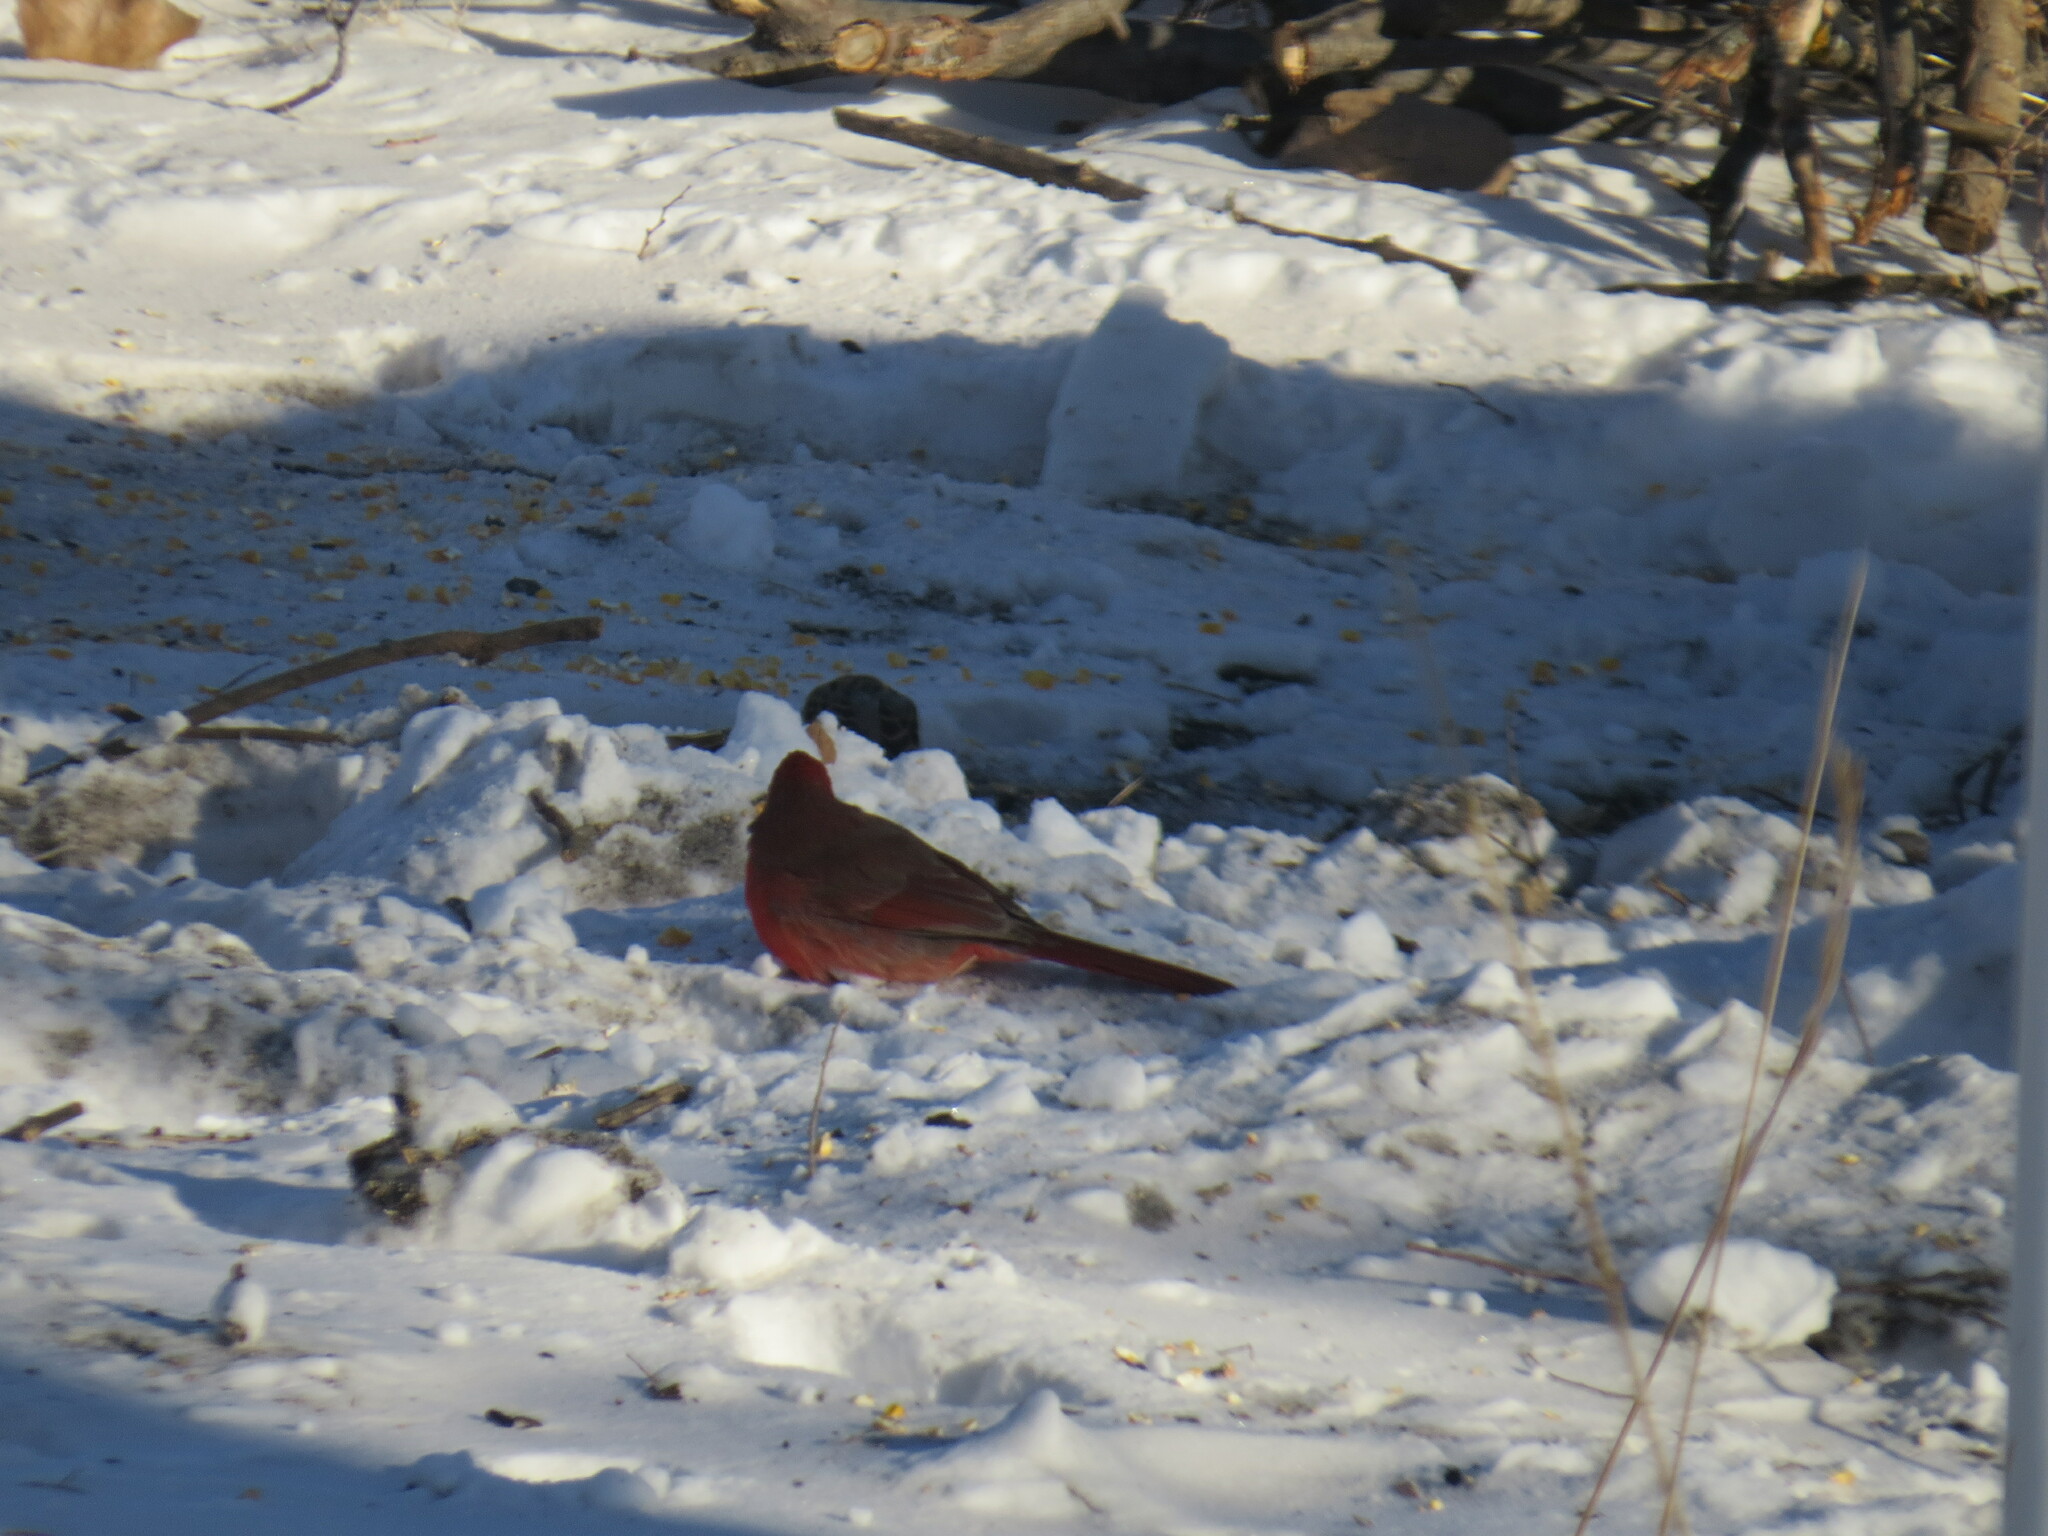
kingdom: Animalia
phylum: Chordata
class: Aves
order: Passeriformes
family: Cardinalidae
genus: Cardinalis
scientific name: Cardinalis cardinalis
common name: Northern cardinal
